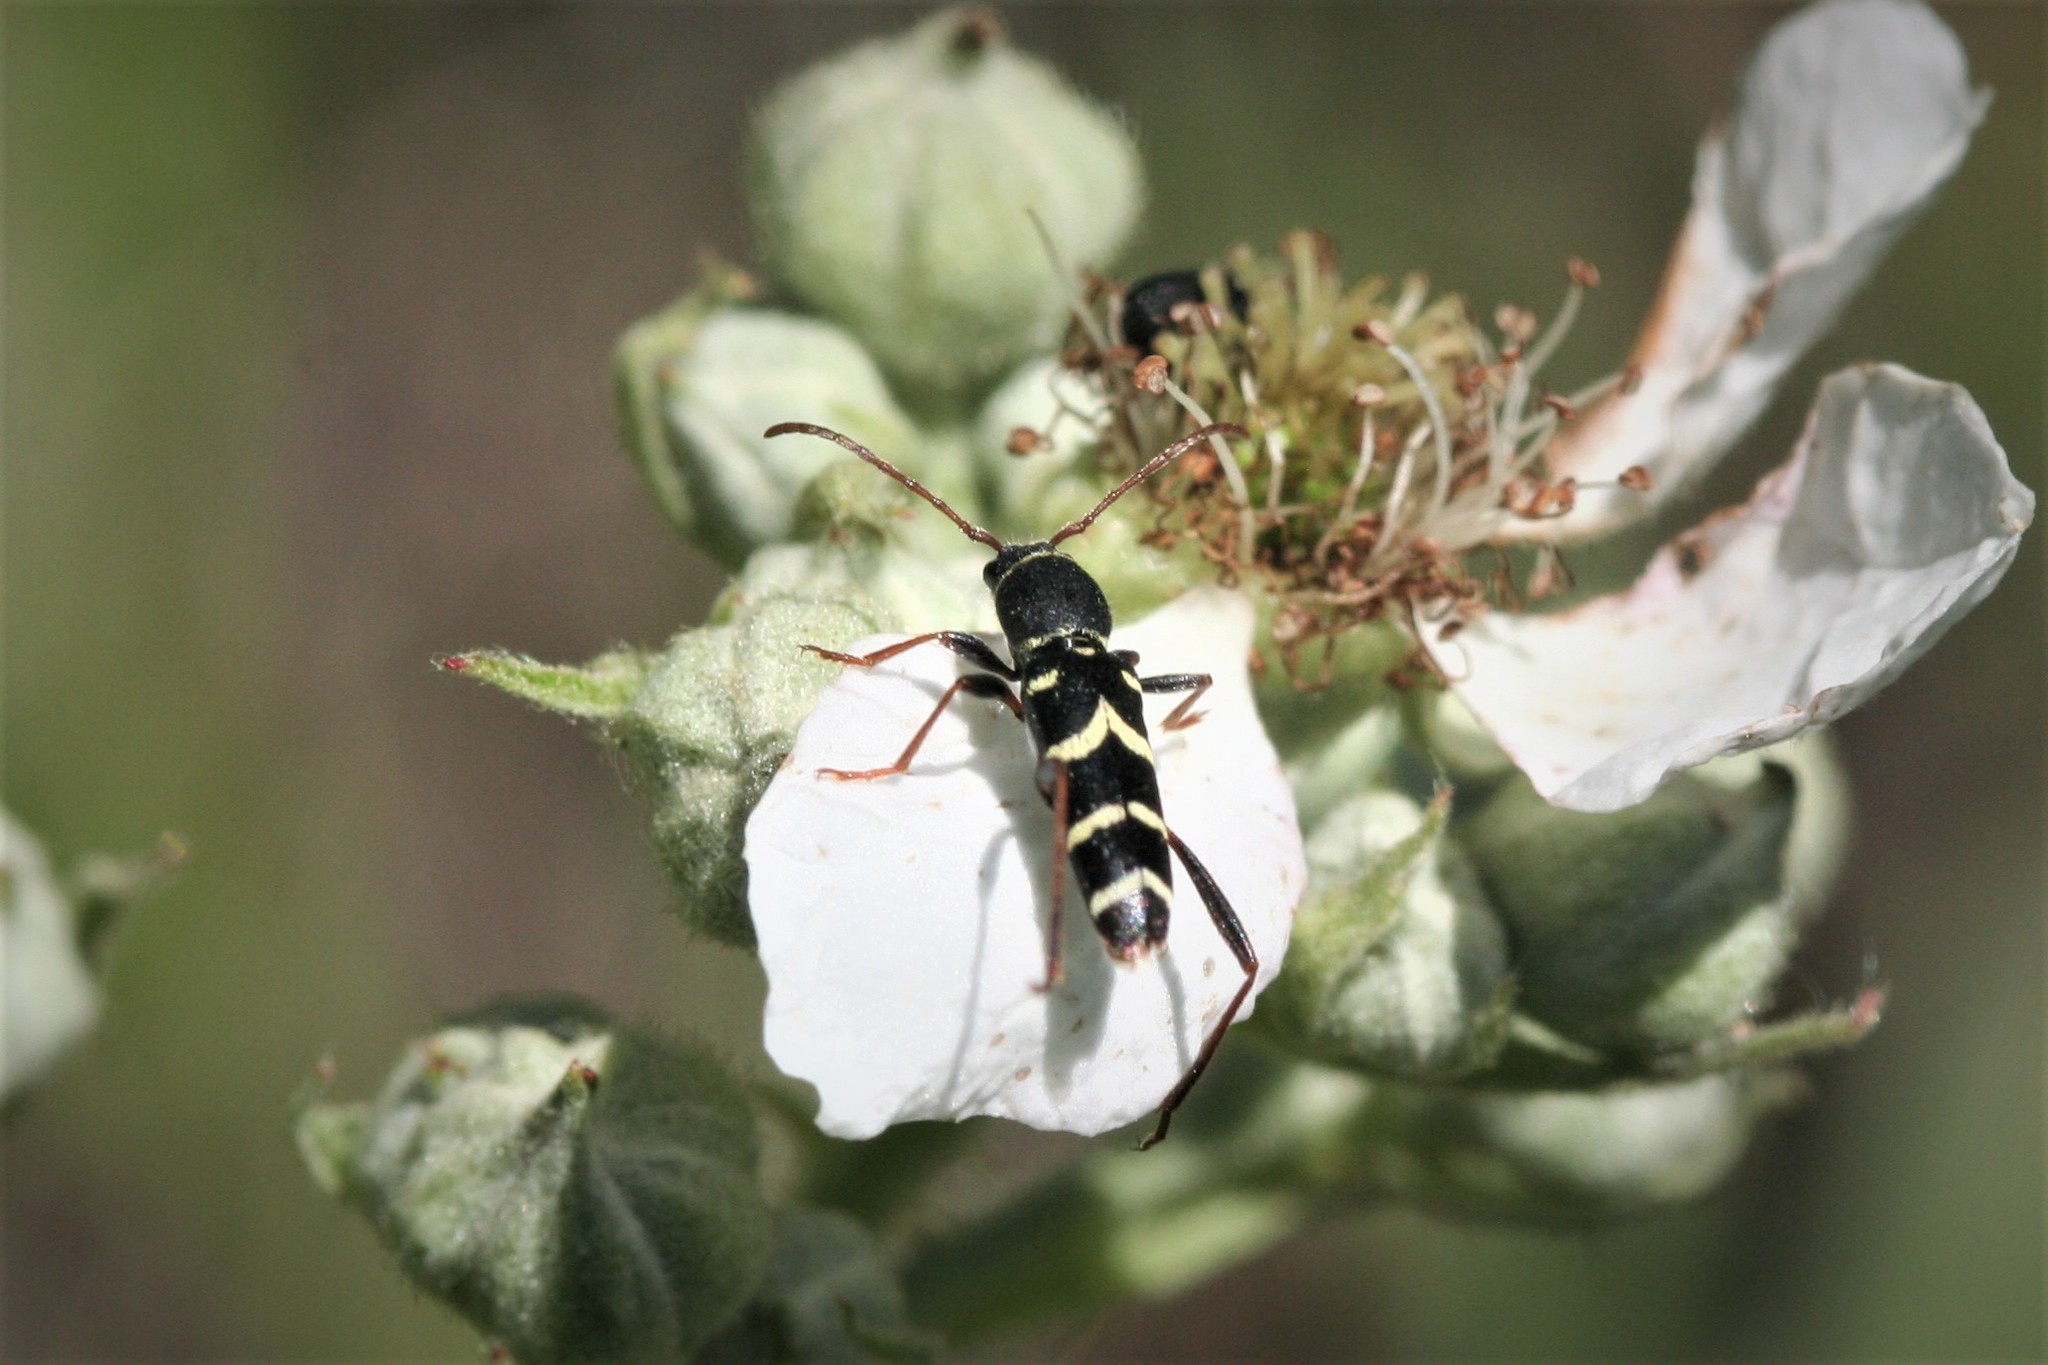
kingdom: Animalia
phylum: Arthropoda
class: Insecta
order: Coleoptera
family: Cerambycidae
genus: Clytus
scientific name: Clytus schneideri
